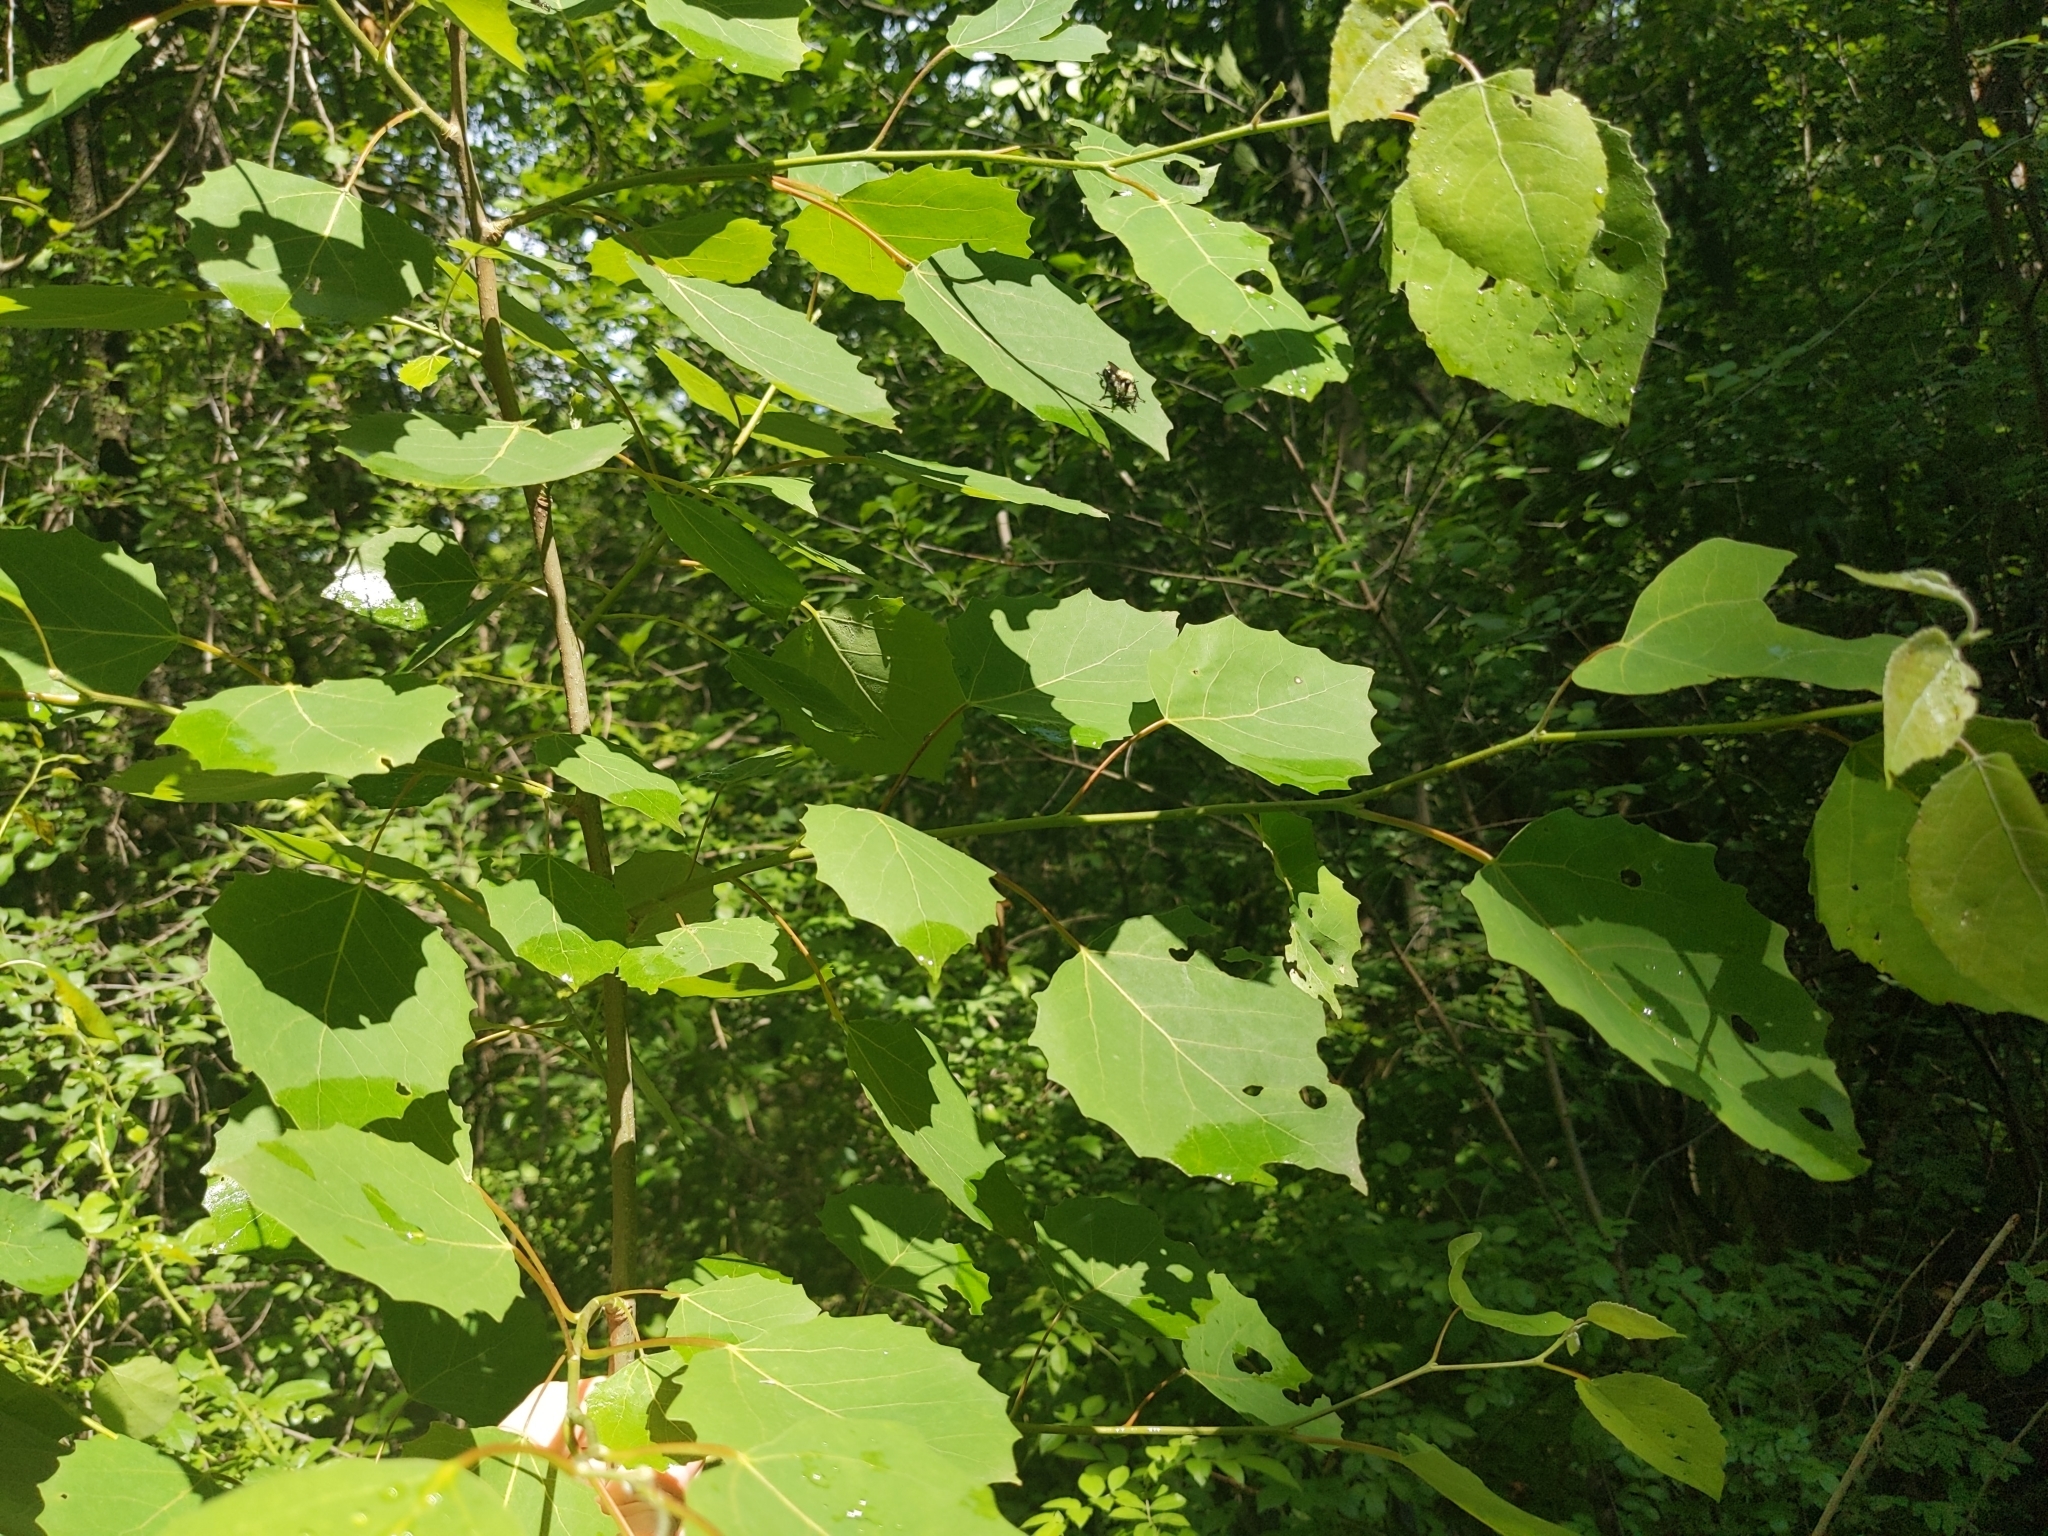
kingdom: Plantae
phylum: Tracheophyta
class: Magnoliopsida
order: Malpighiales
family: Salicaceae
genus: Populus
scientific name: Populus grandidentata
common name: Bigtooth aspen
